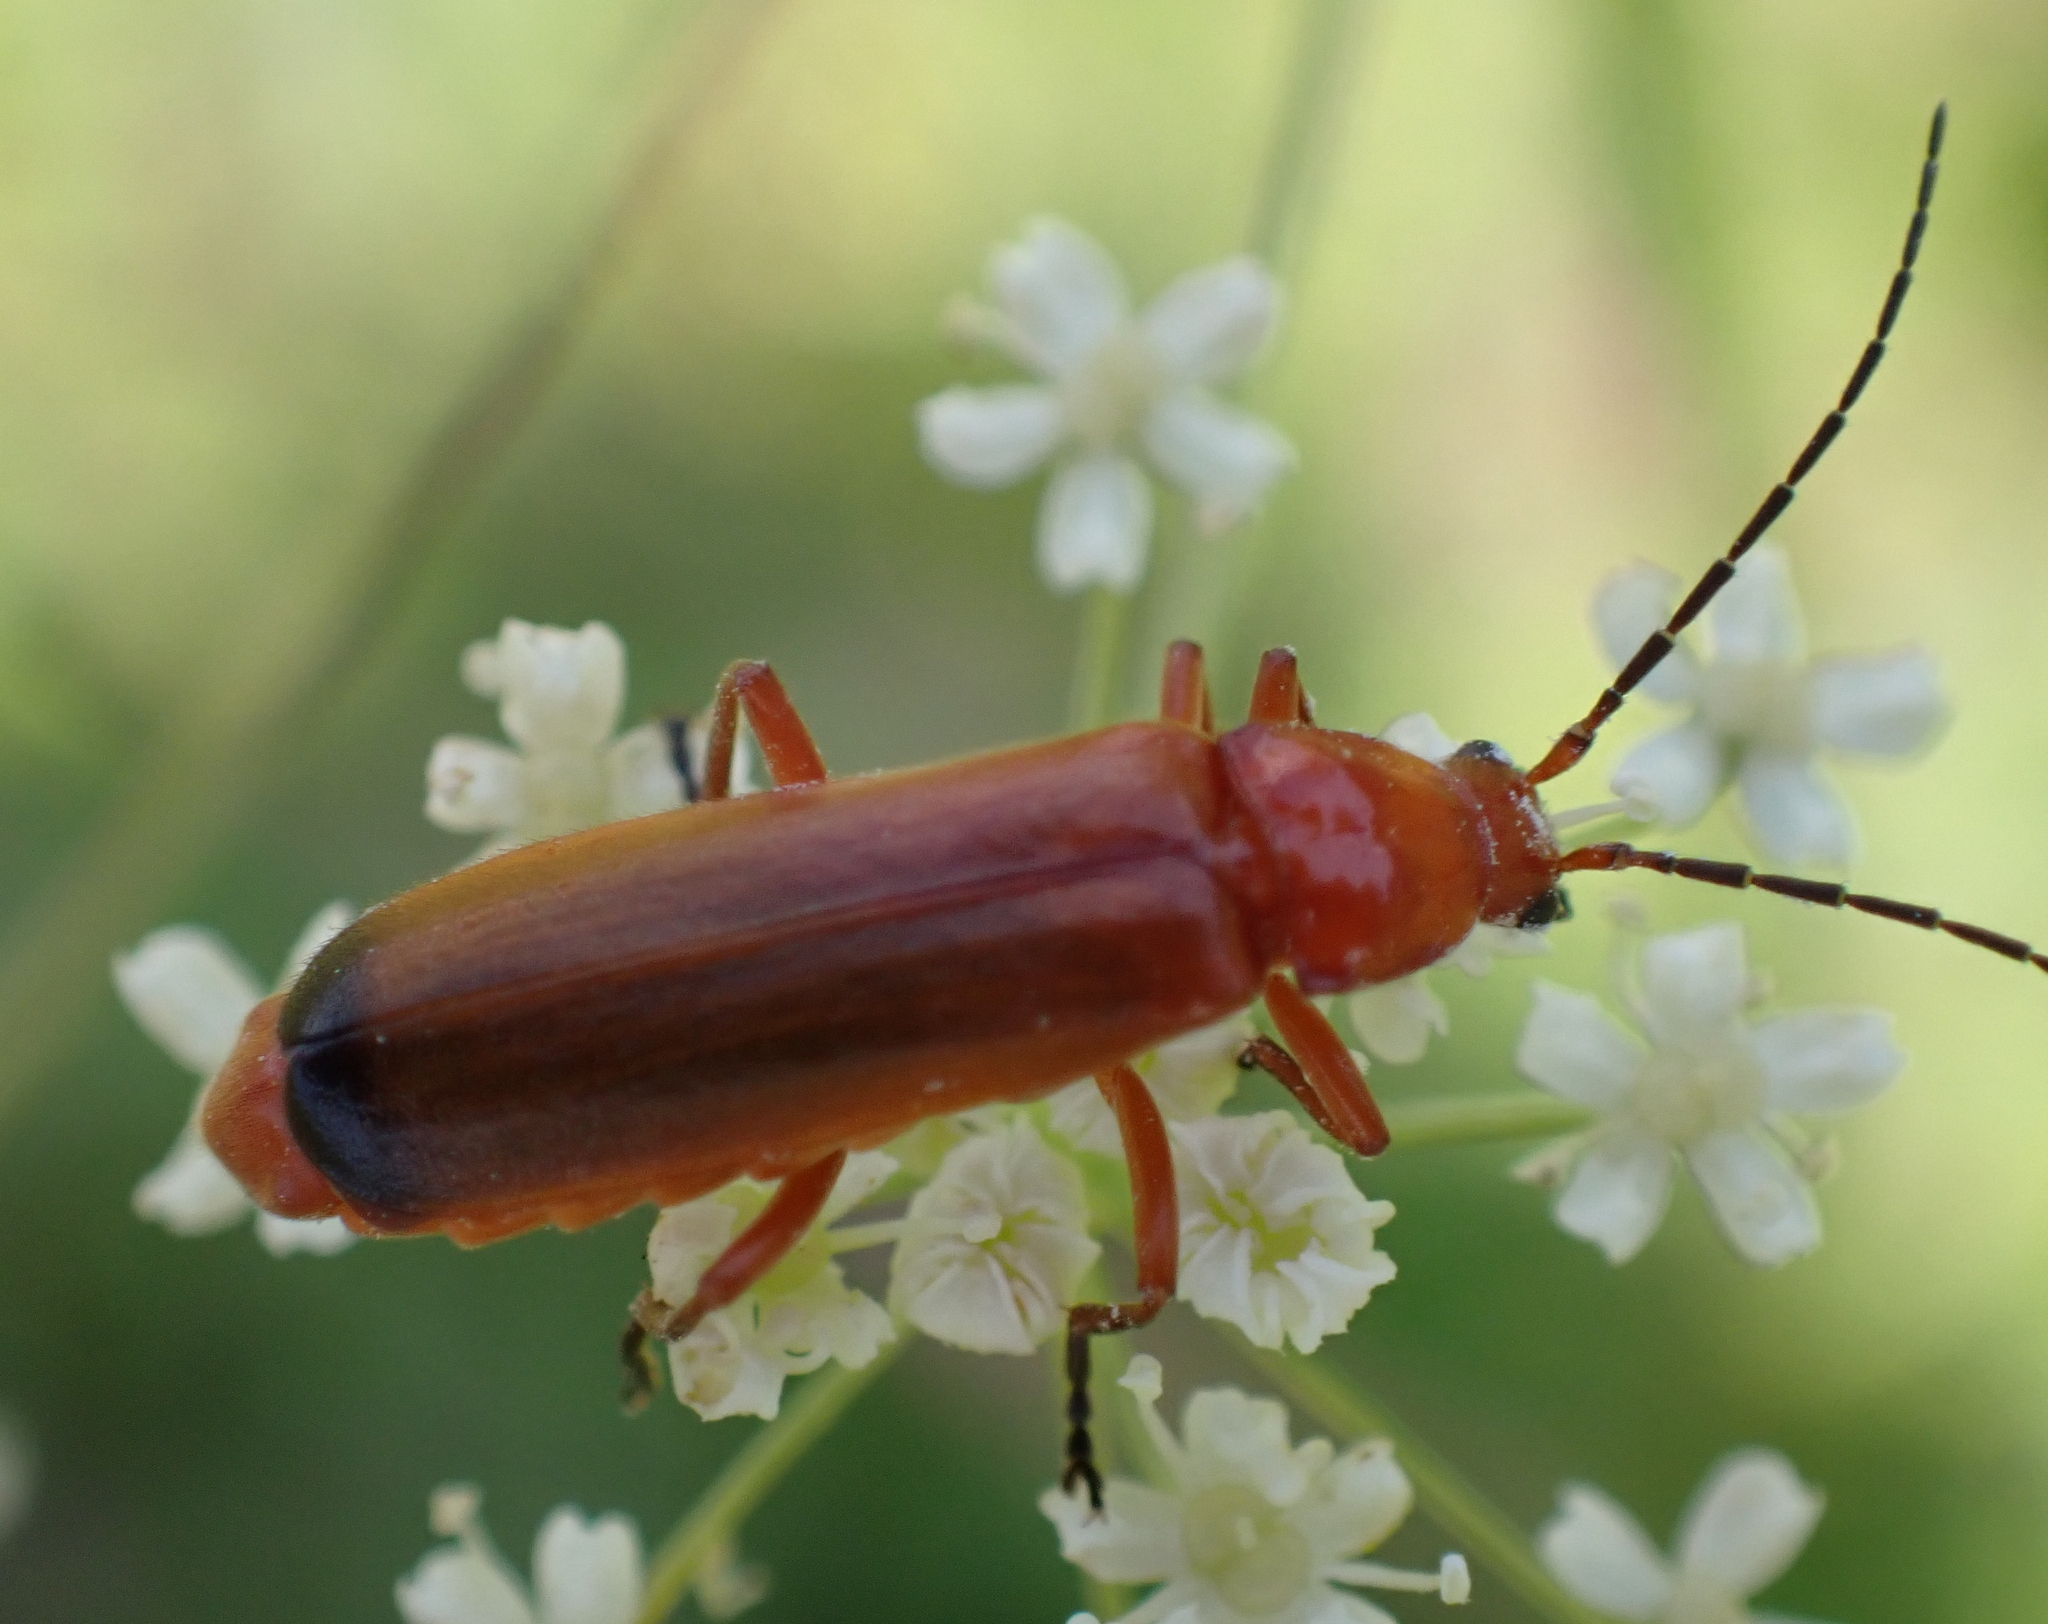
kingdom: Animalia
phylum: Arthropoda
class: Insecta
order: Coleoptera
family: Cantharidae
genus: Rhagonycha
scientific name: Rhagonycha fulva
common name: Common red soldier beetle
